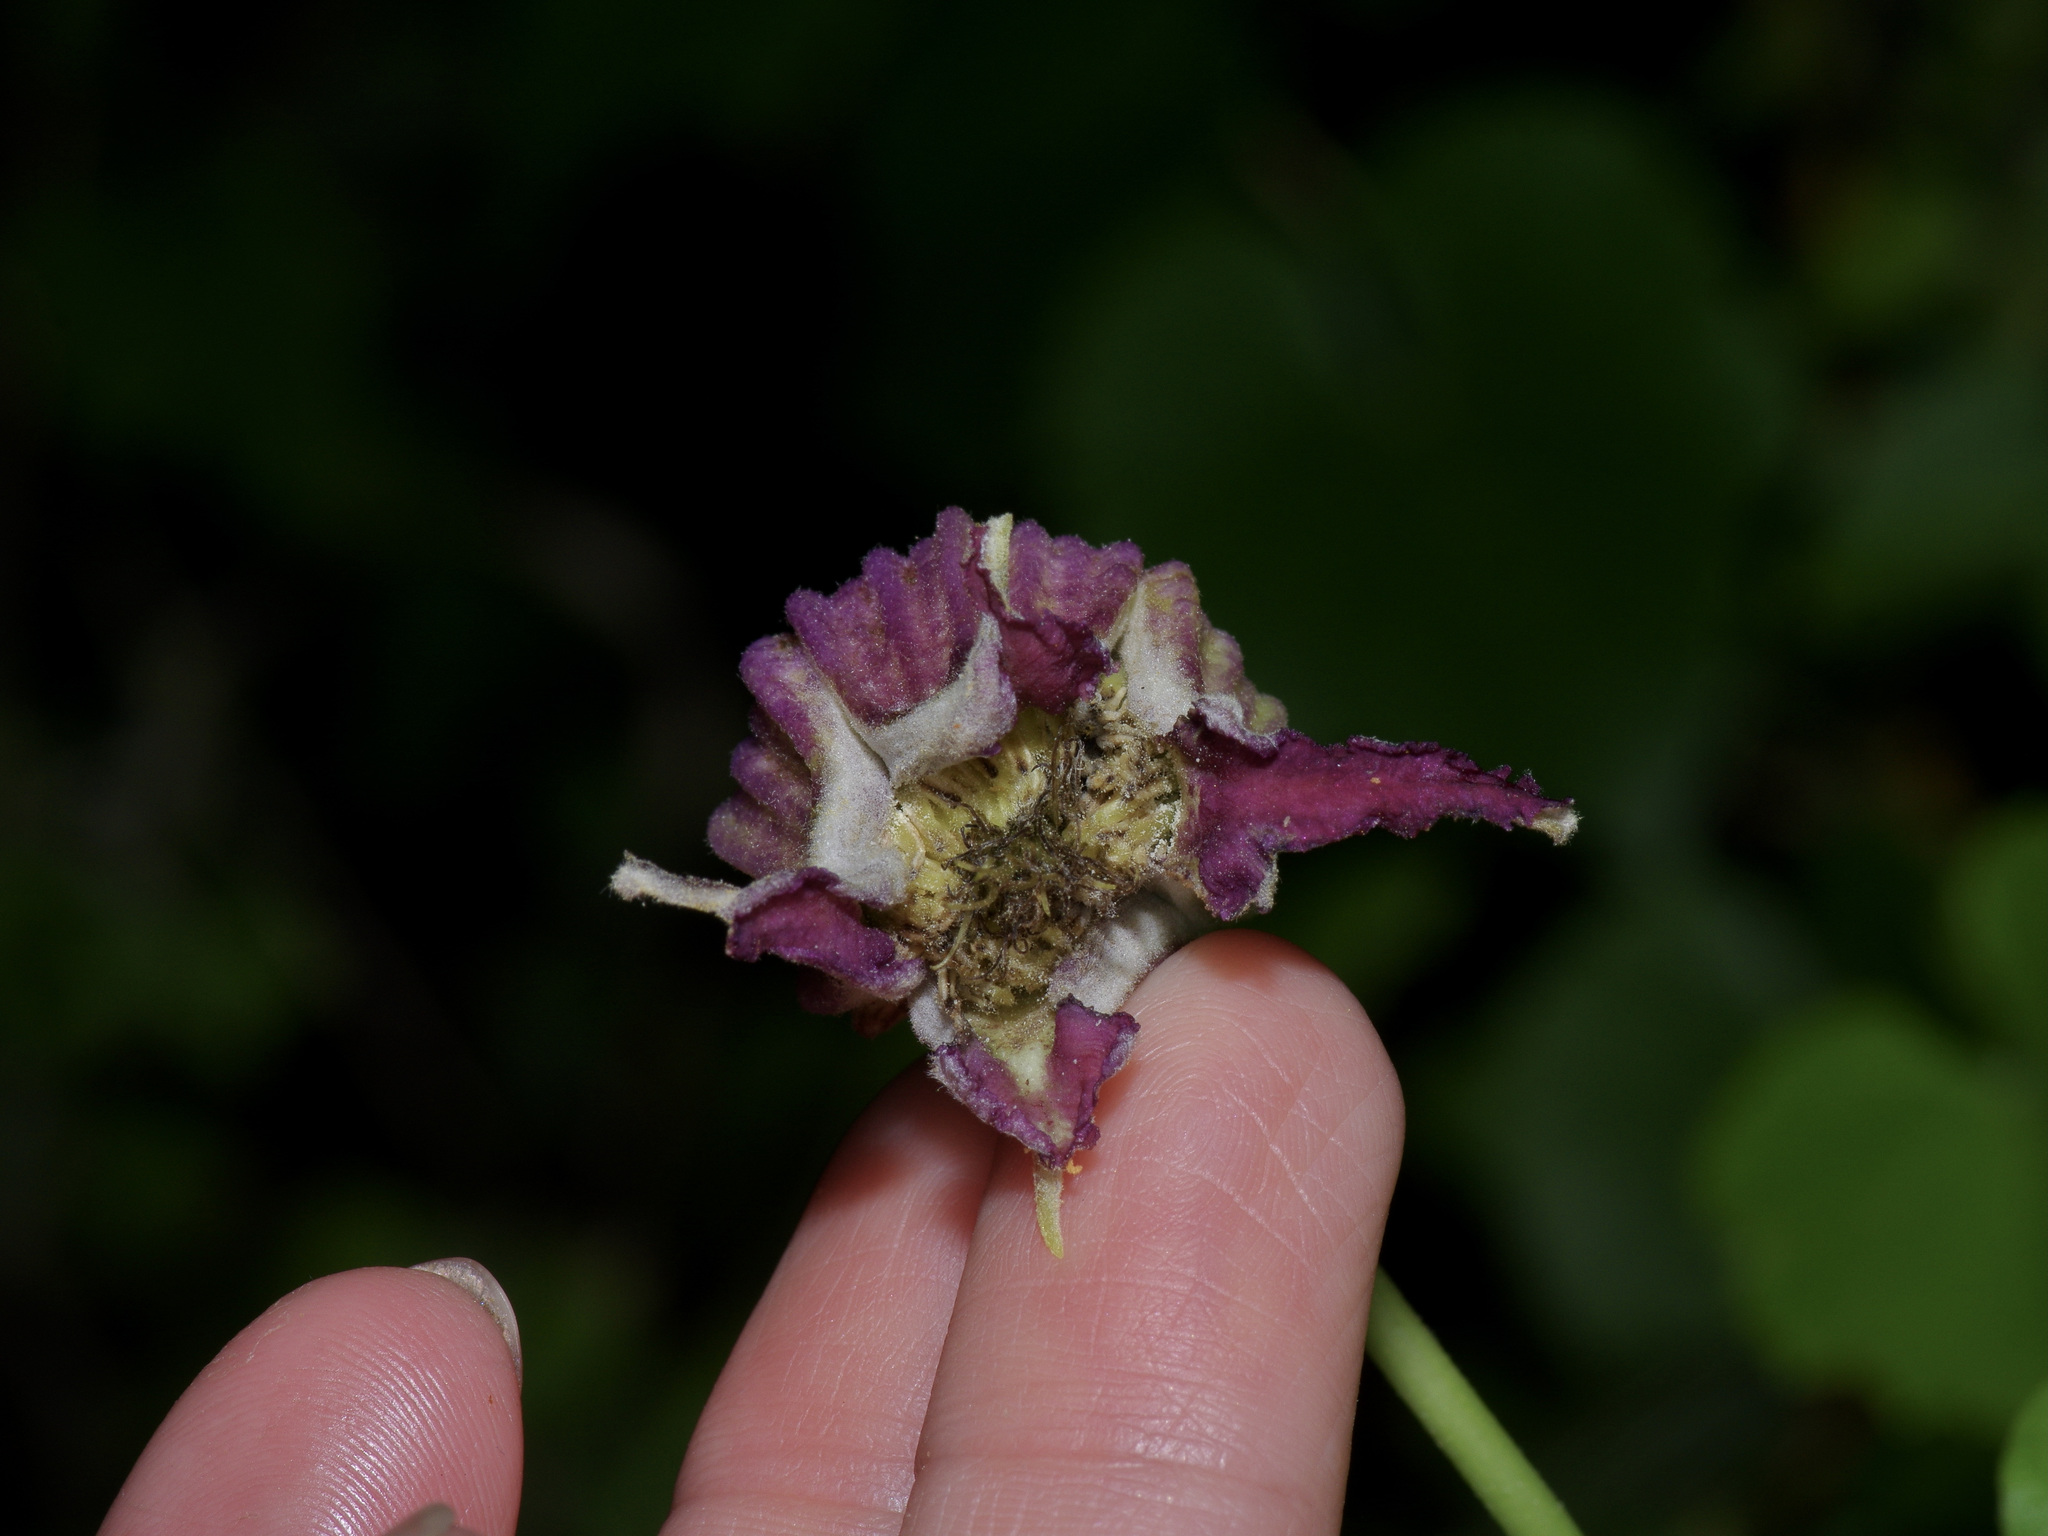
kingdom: Plantae
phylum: Tracheophyta
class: Magnoliopsida
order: Ranunculales
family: Ranunculaceae
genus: Clematis
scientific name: Clematis pitcheri
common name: Bellflower clematis
